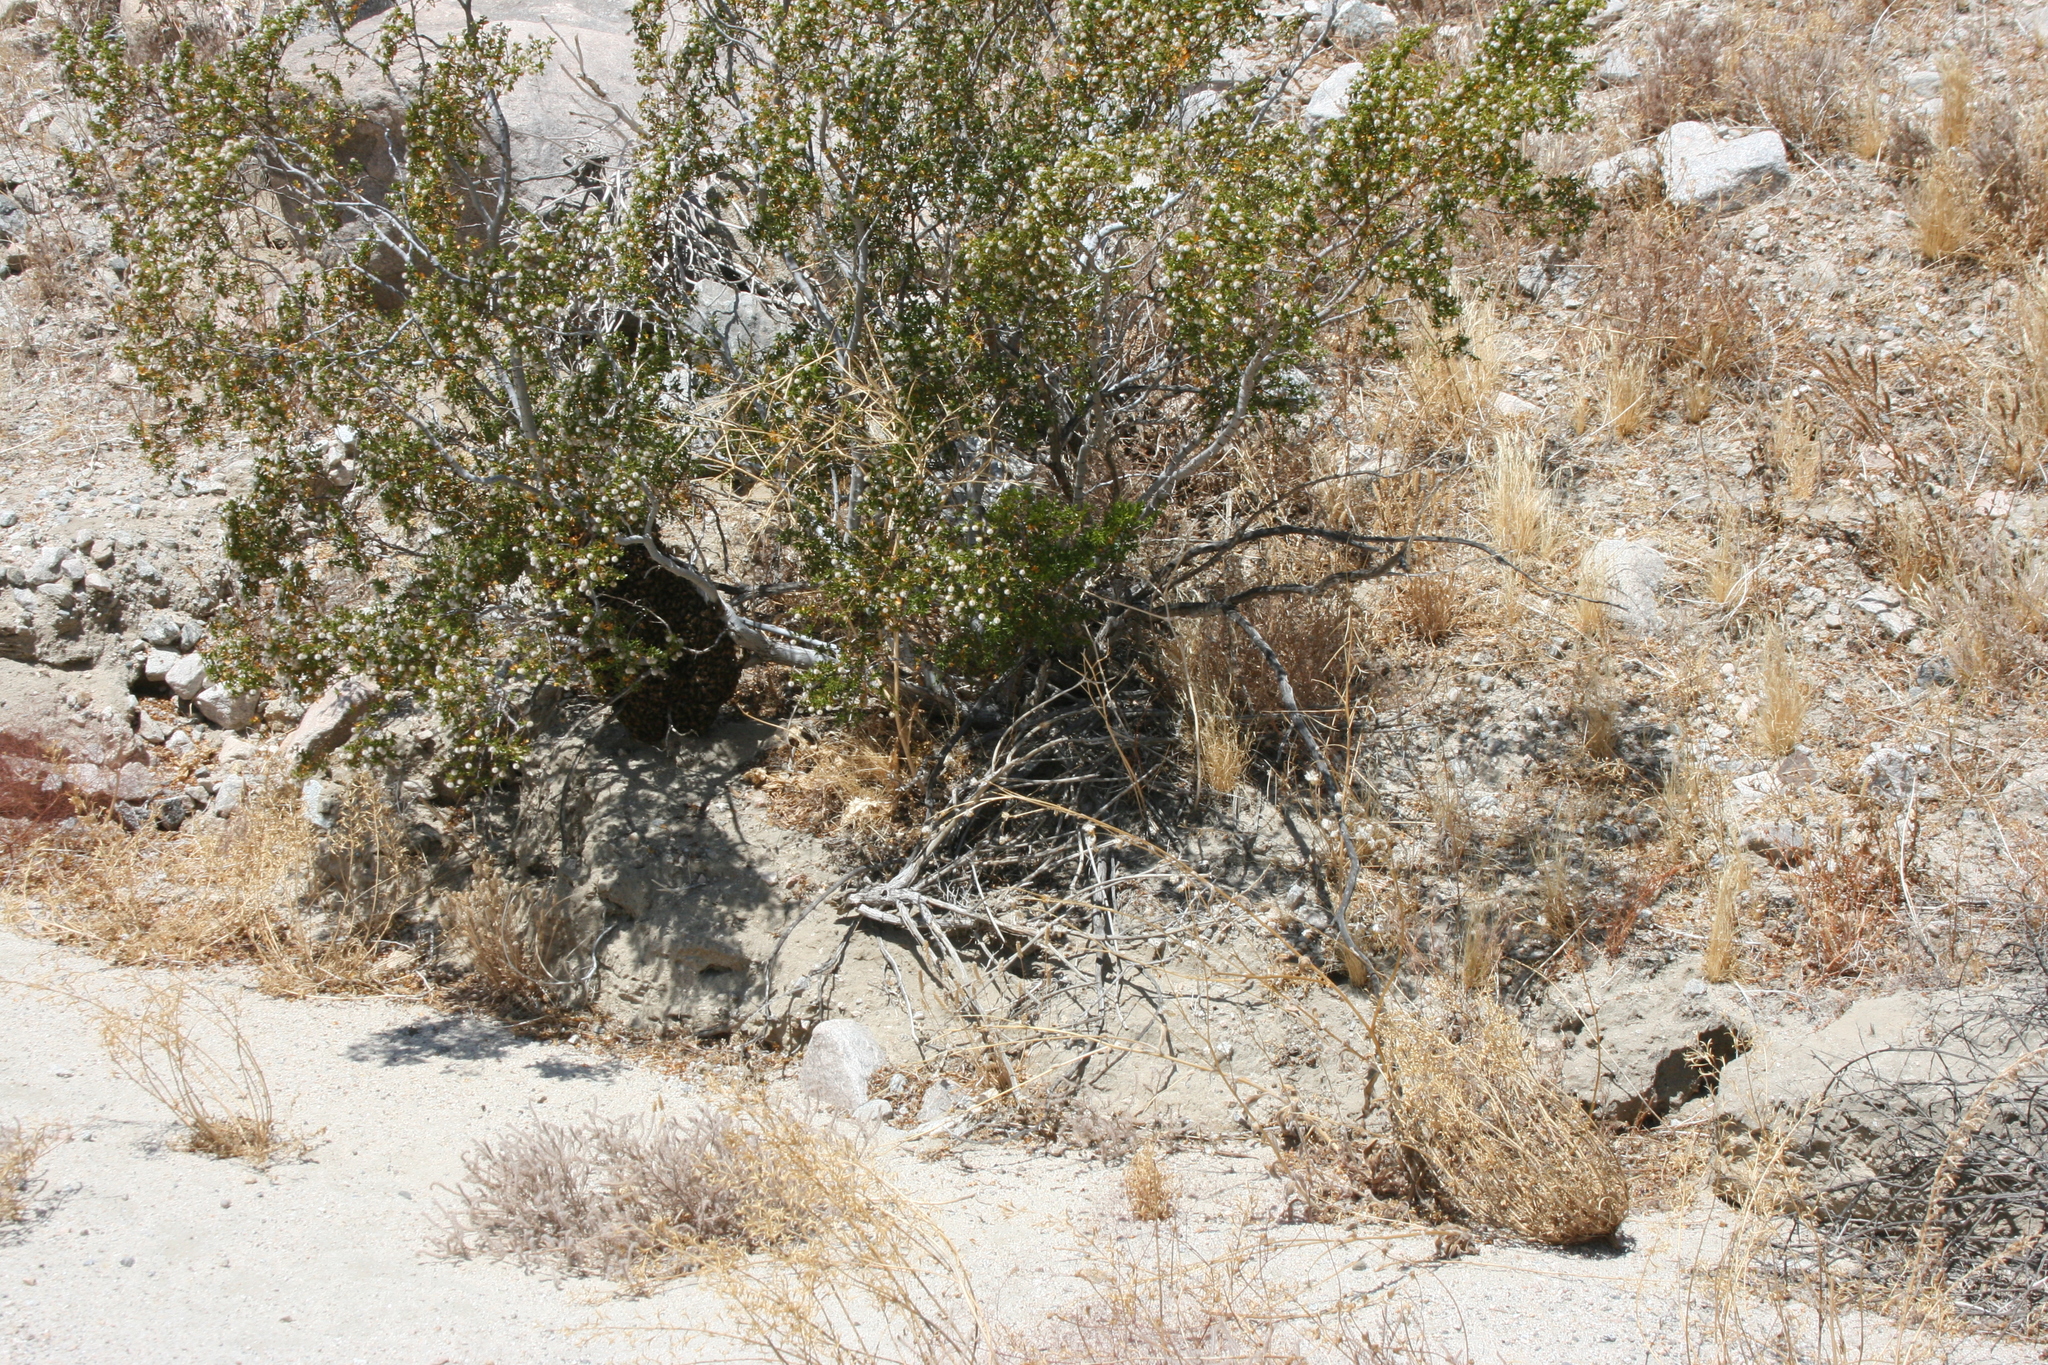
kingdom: Animalia
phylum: Arthropoda
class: Insecta
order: Hymenoptera
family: Apidae
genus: Apis
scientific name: Apis mellifera
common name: Honey bee
